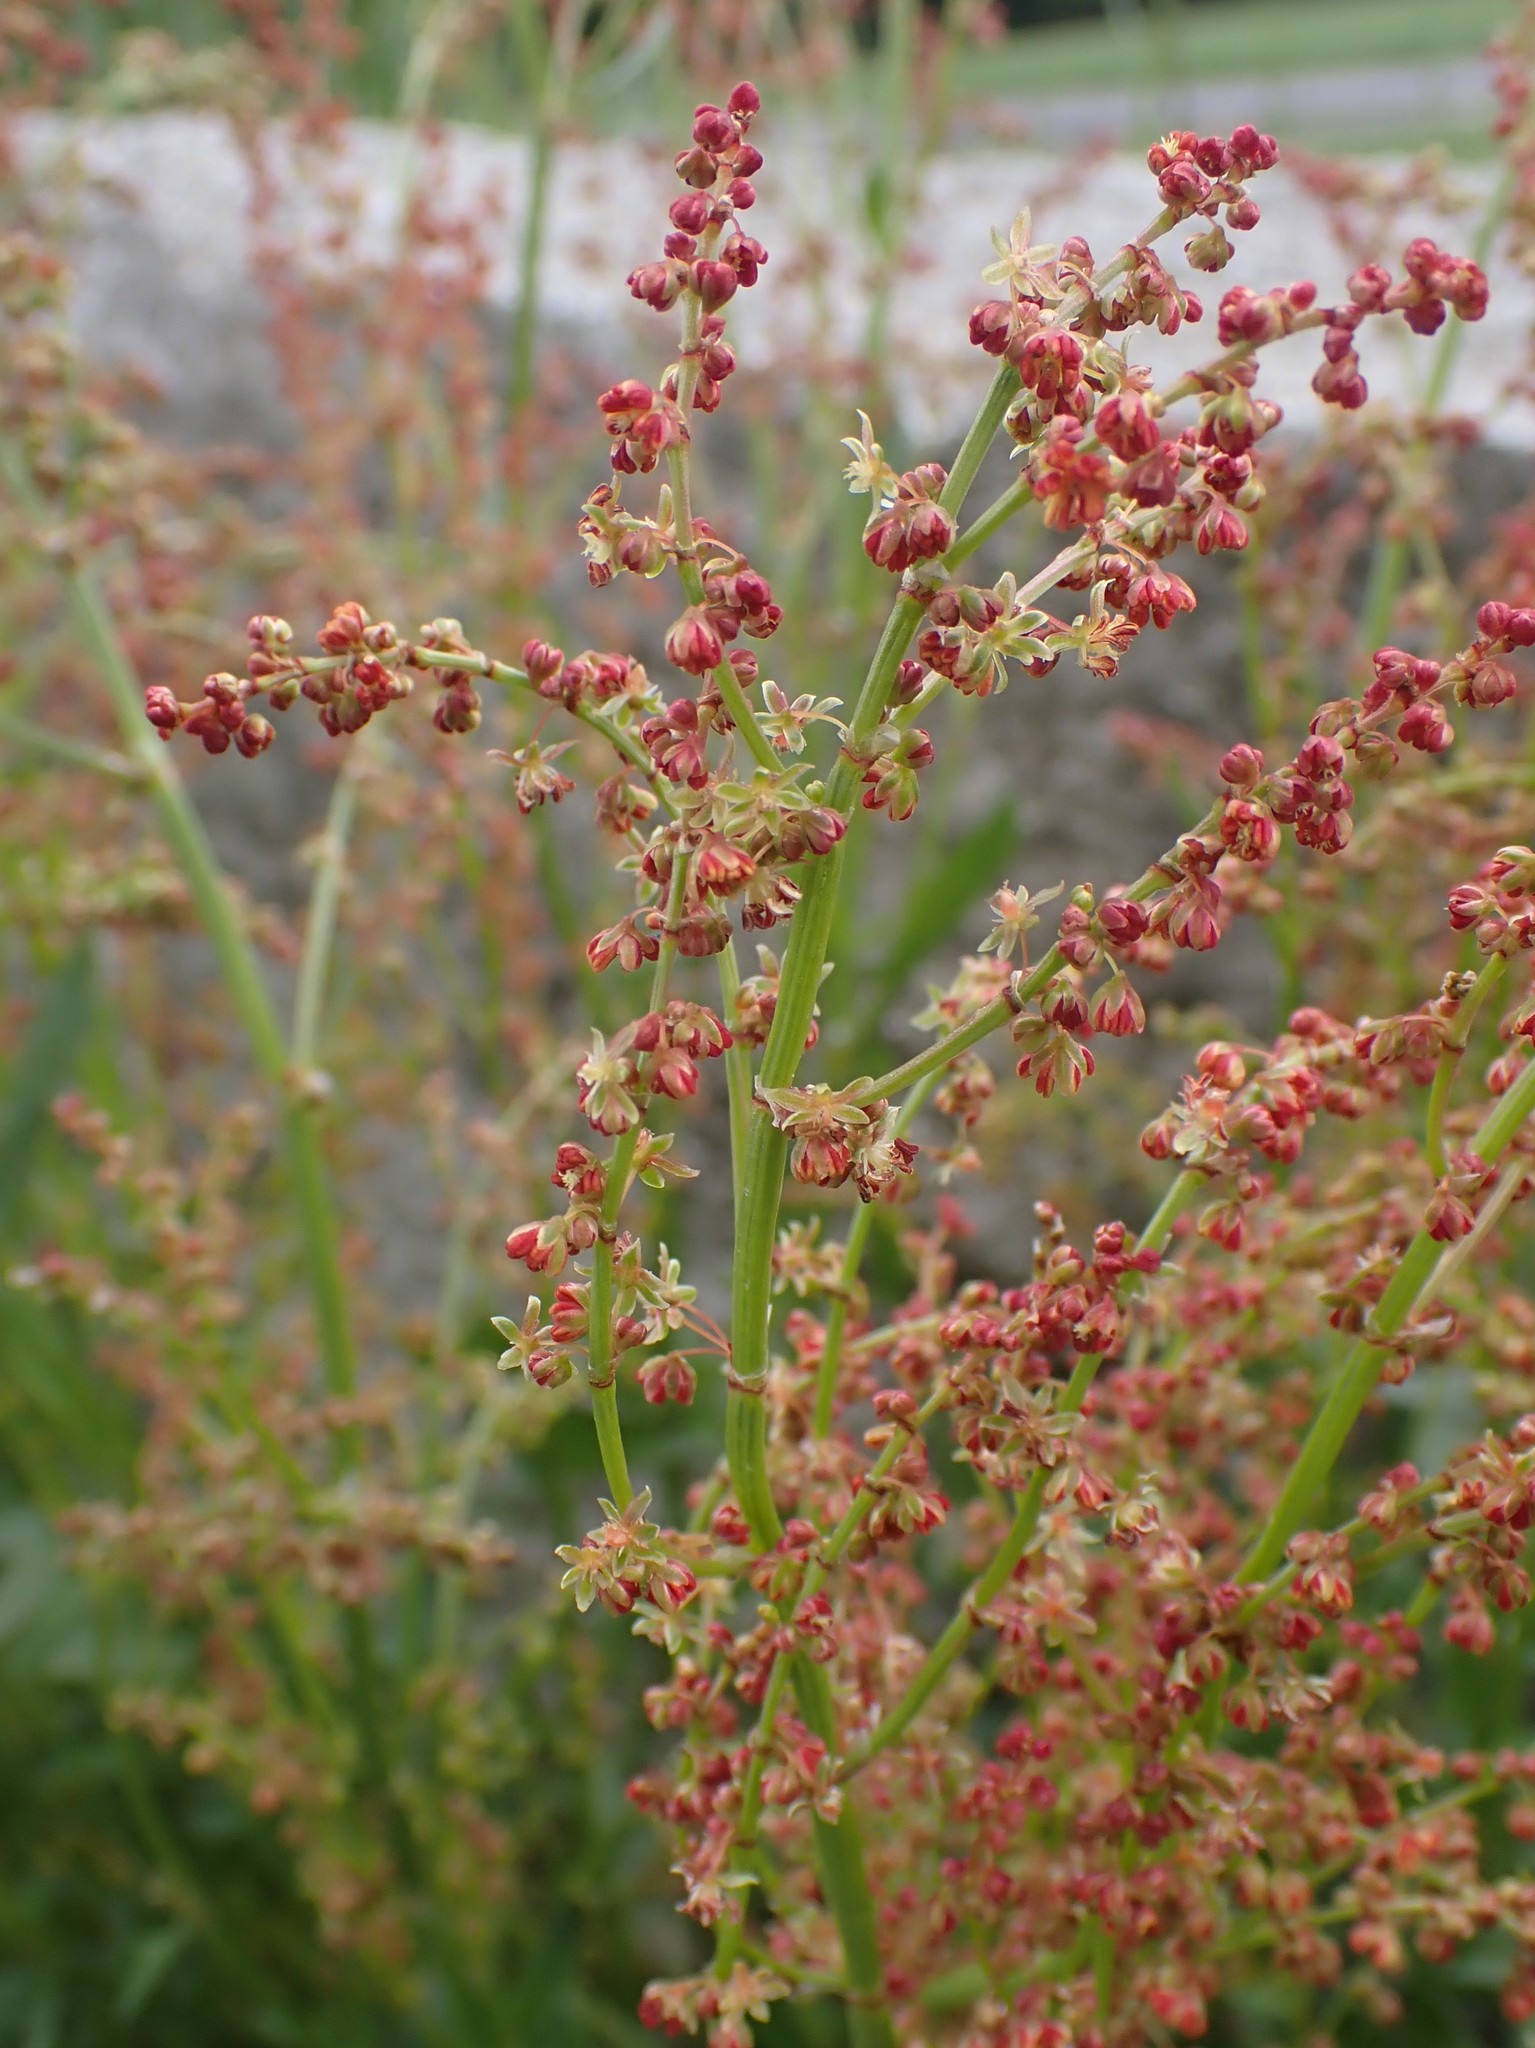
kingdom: Plantae
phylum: Tracheophyta
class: Magnoliopsida
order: Caryophyllales
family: Polygonaceae
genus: Rumex
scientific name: Rumex acetosella
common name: Common sheep sorrel
